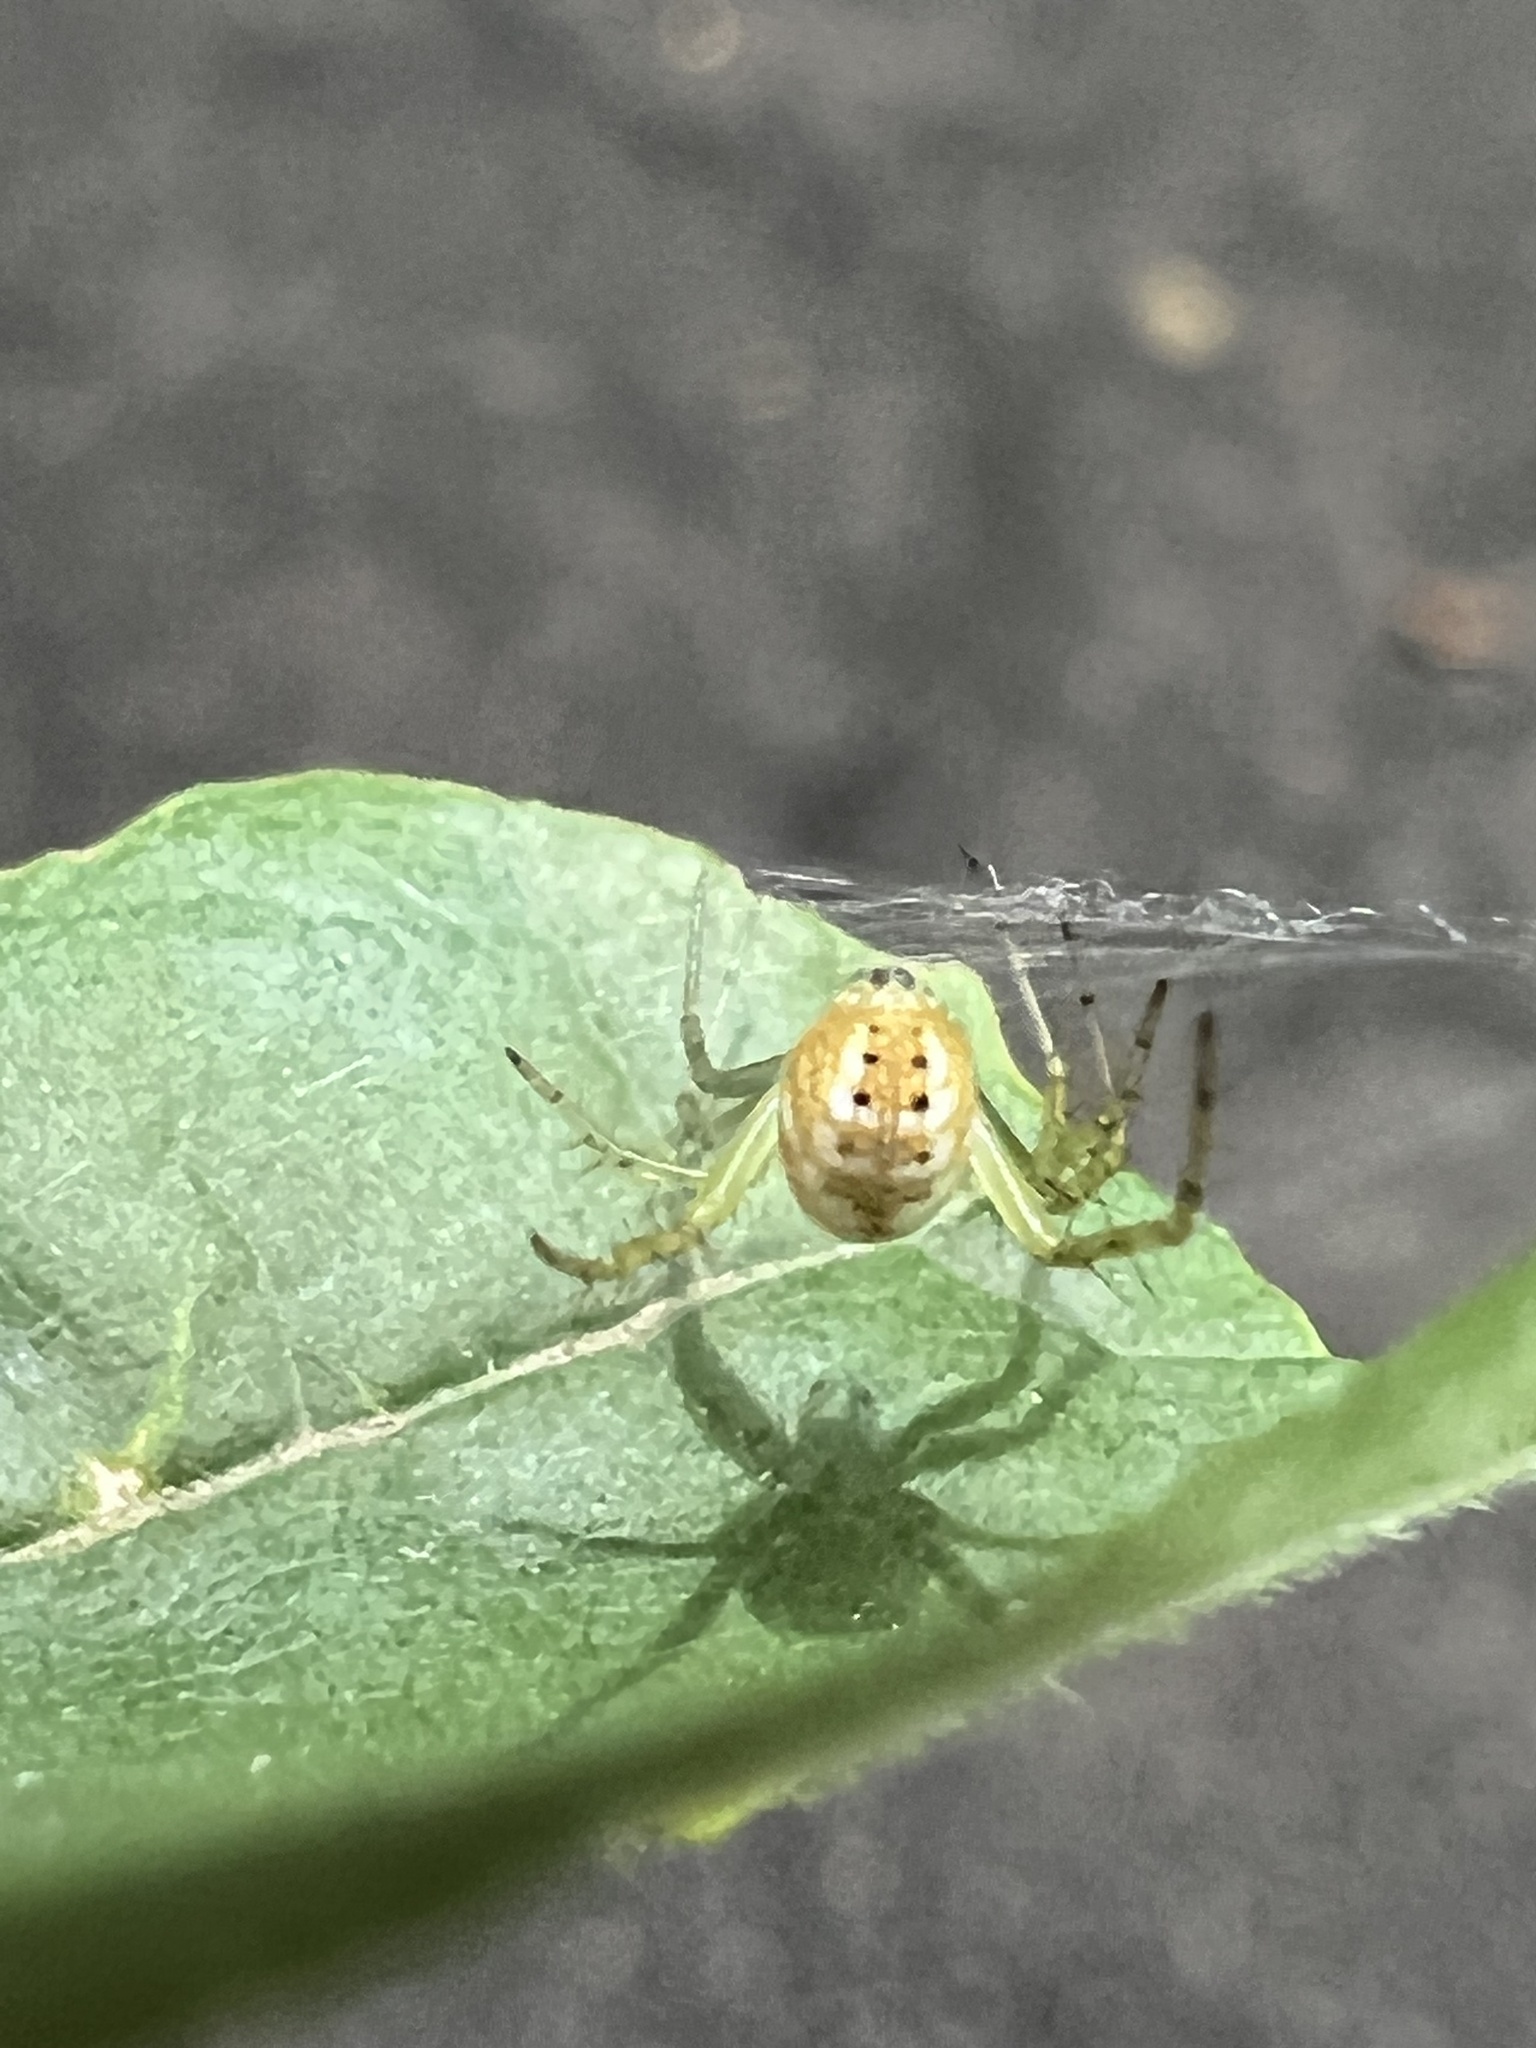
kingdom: Animalia
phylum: Arthropoda
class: Arachnida
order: Araneae
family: Araneidae
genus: Mangora
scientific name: Mangora spiculata
